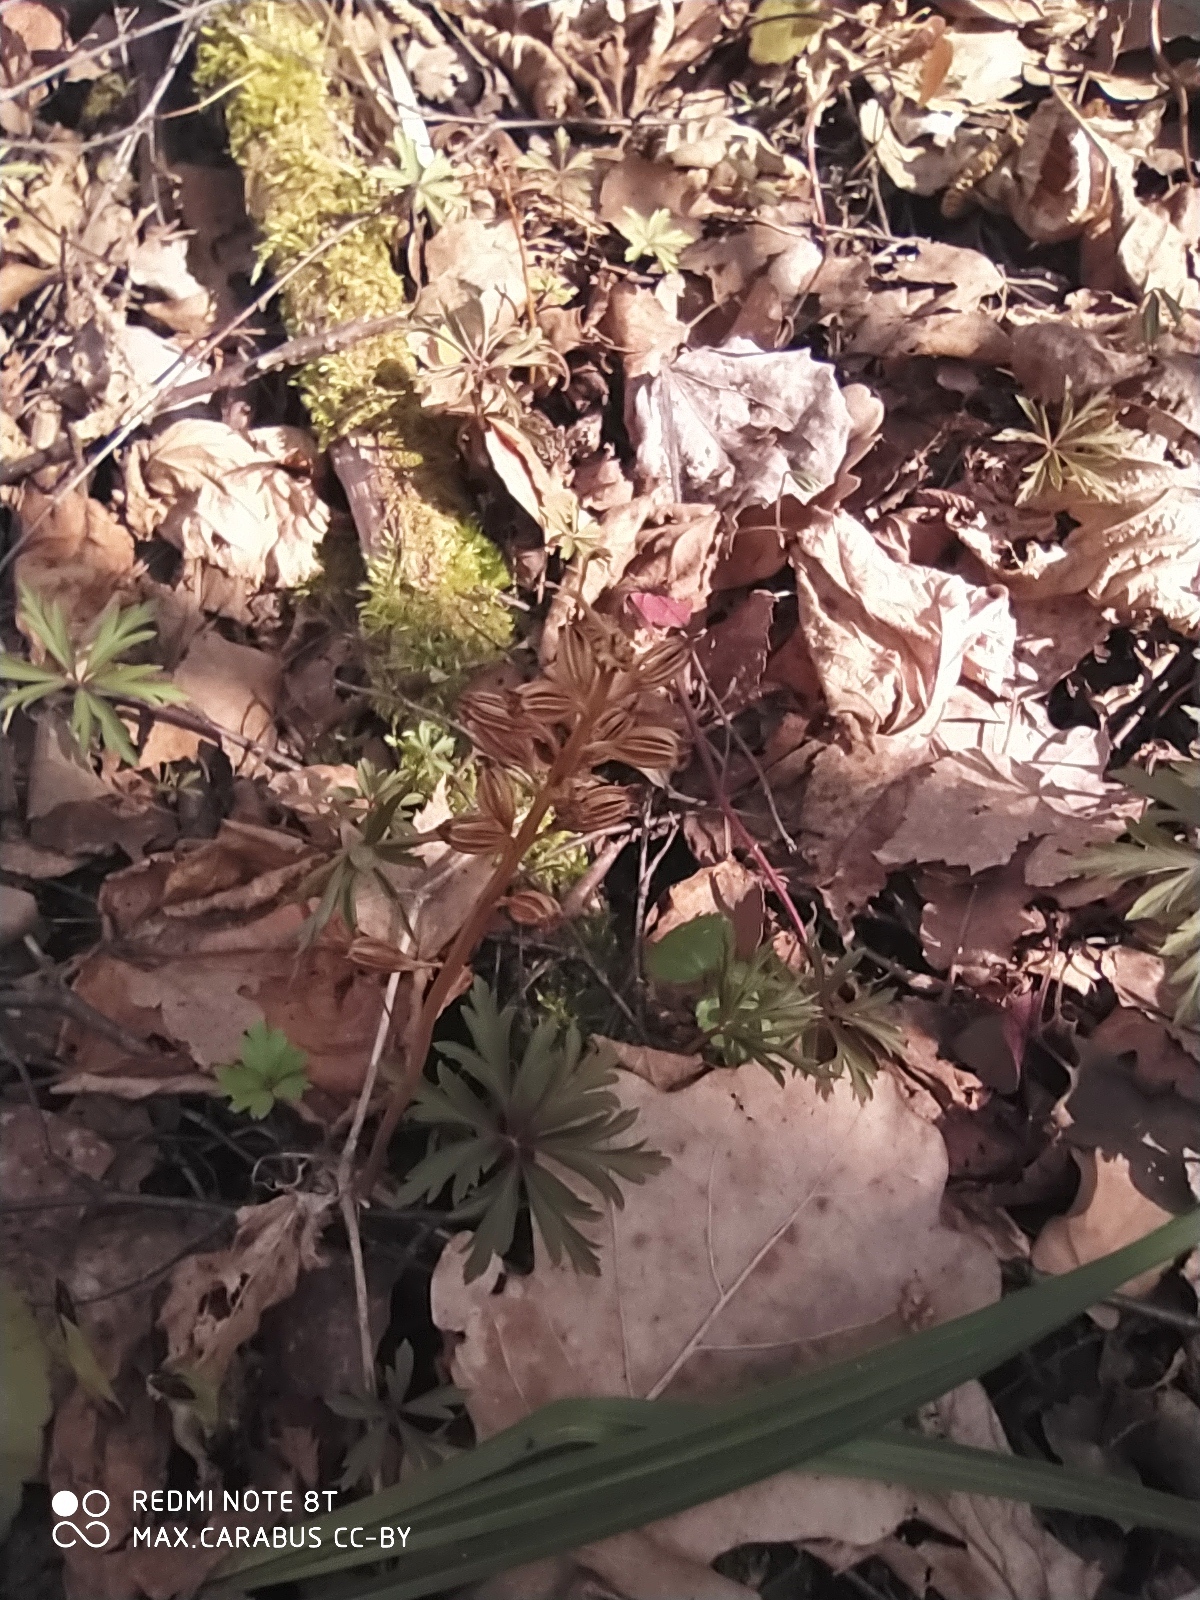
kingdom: Plantae
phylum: Tracheophyta
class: Liliopsida
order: Asparagales
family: Orchidaceae
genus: Neottia
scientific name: Neottia nidus-avis
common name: Bird's-nest orchid
